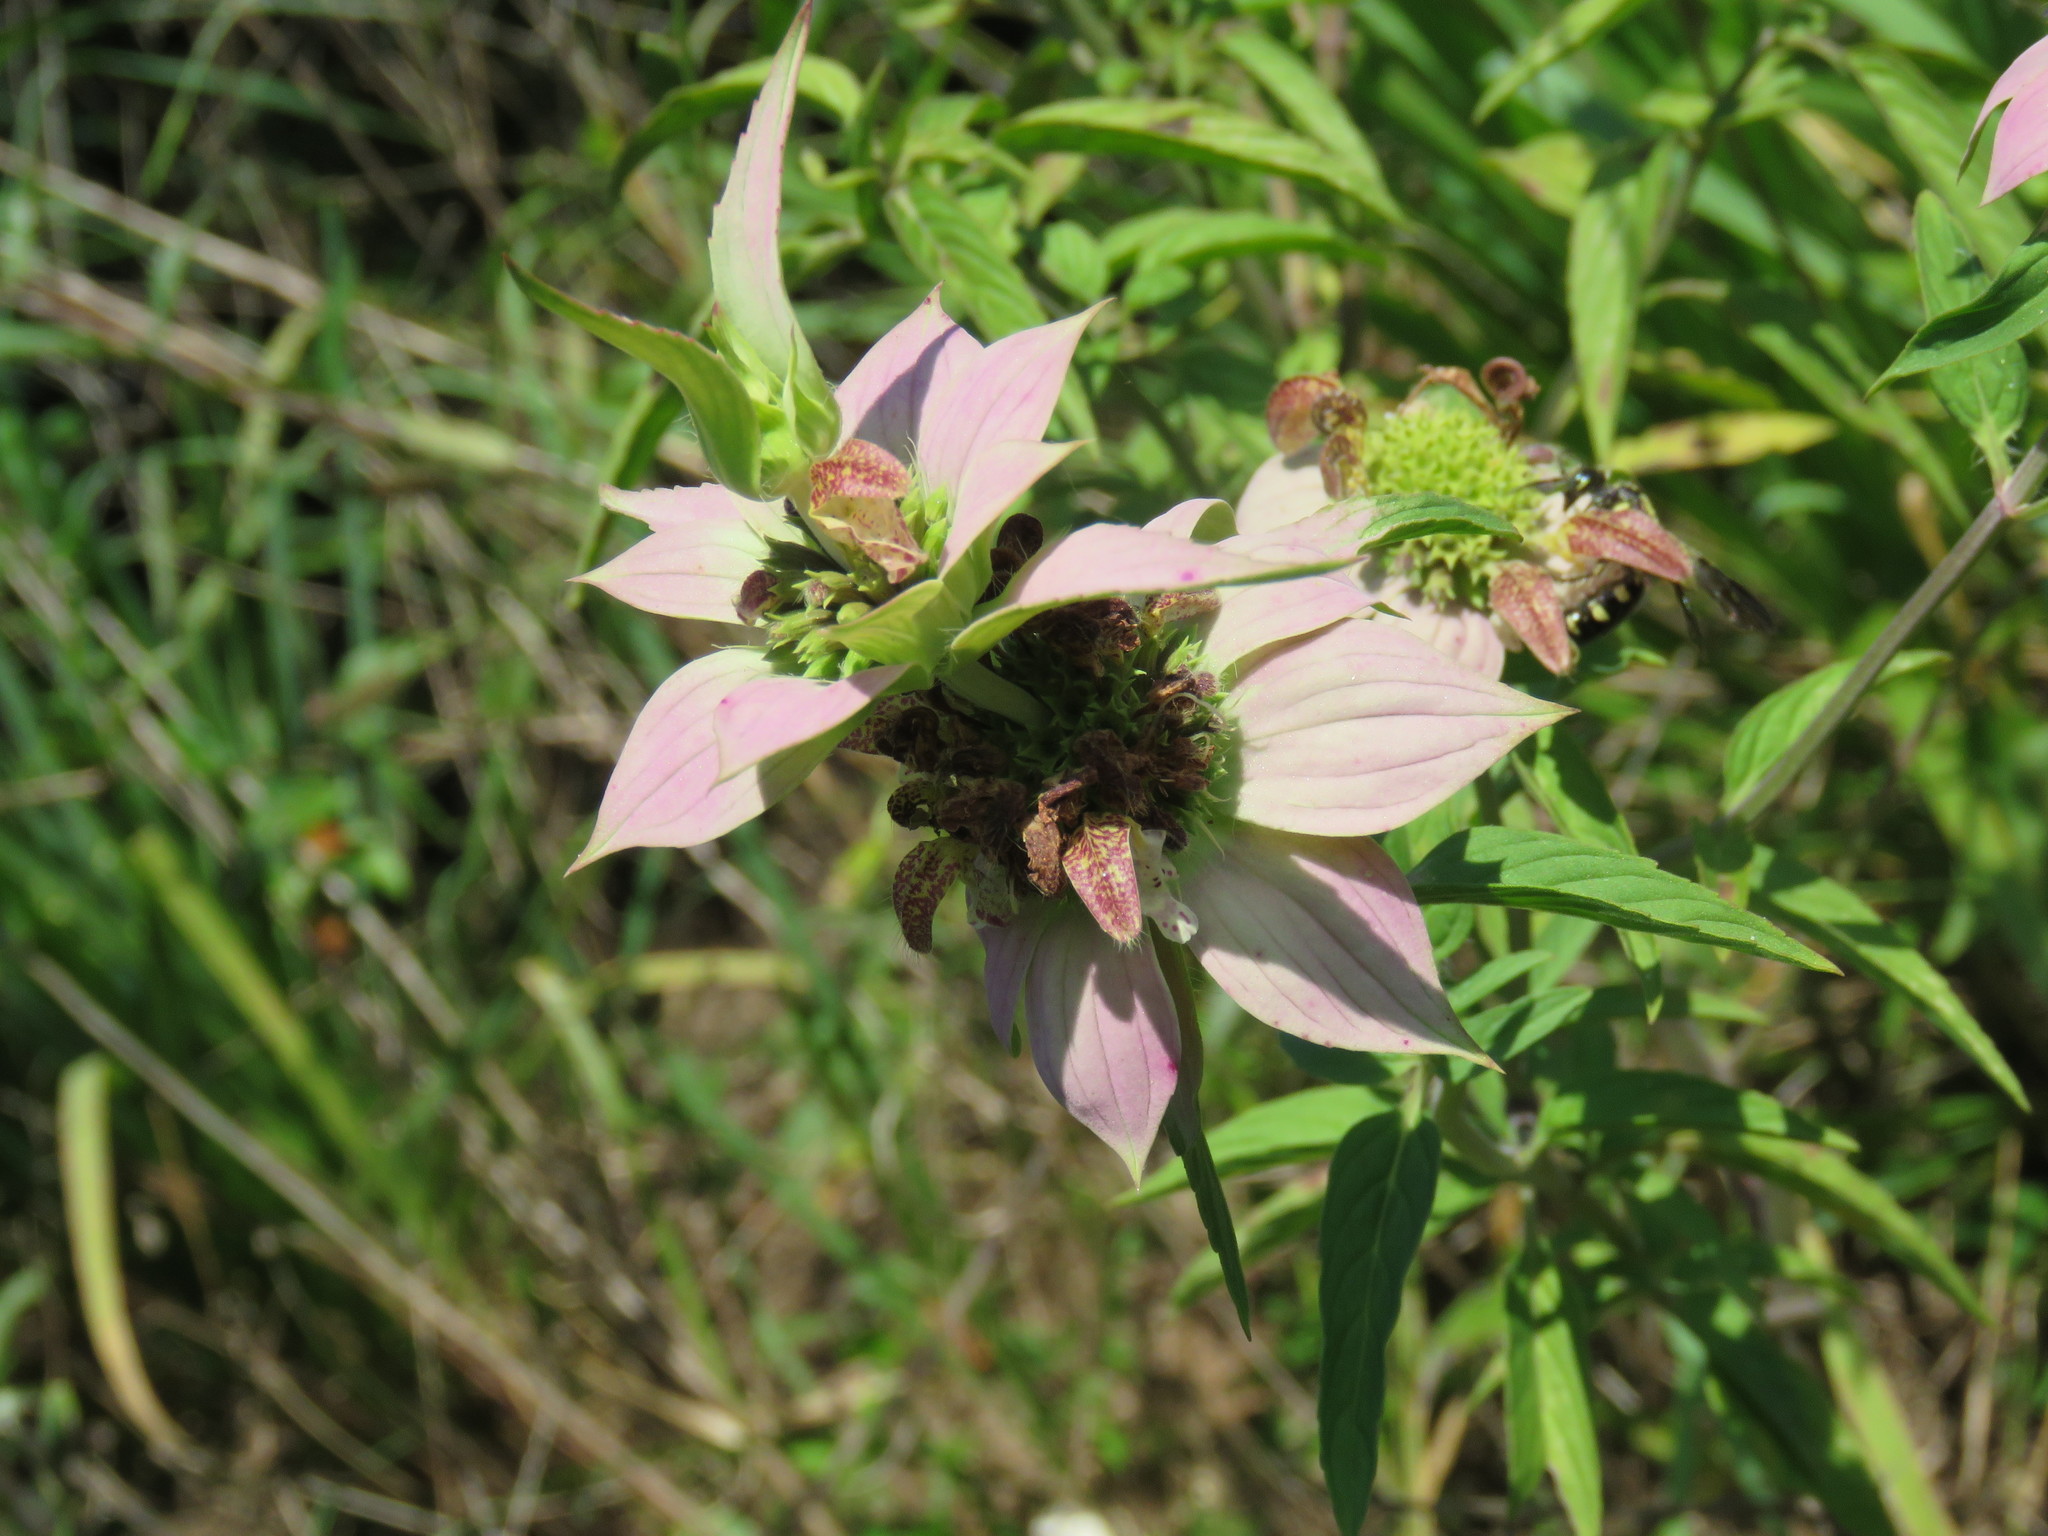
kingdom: Plantae
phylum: Tracheophyta
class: Magnoliopsida
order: Lamiales
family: Lamiaceae
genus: Monarda
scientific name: Monarda punctata
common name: Dotted monarda
